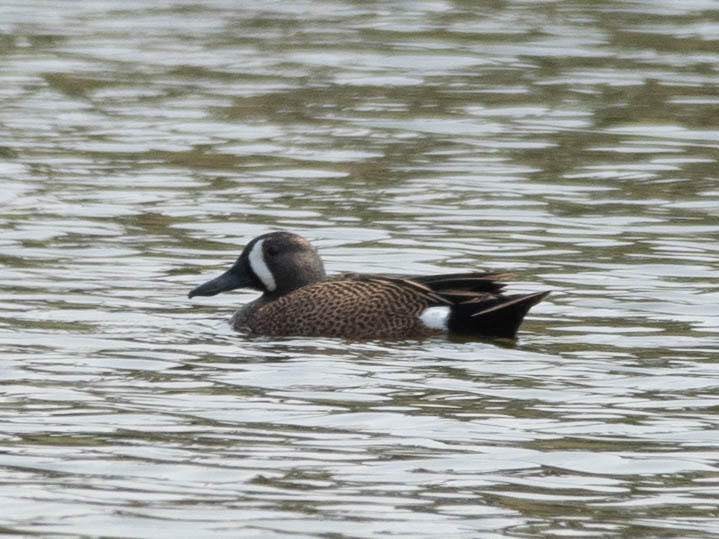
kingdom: Animalia
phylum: Chordata
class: Aves
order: Anseriformes
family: Anatidae
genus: Spatula
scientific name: Spatula discors
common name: Blue-winged teal
